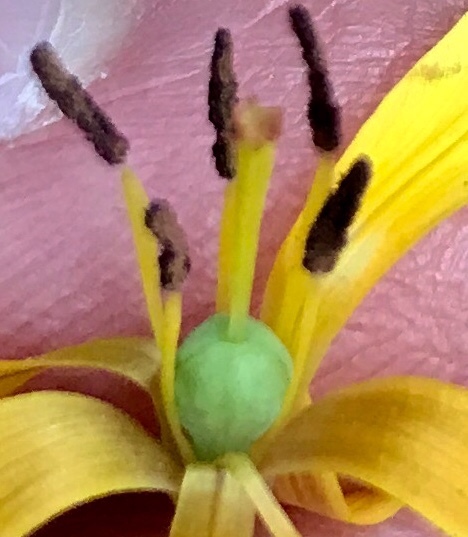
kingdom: Plantae
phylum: Tracheophyta
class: Liliopsida
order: Liliales
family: Liliaceae
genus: Erythronium
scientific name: Erythronium umbilicatum
